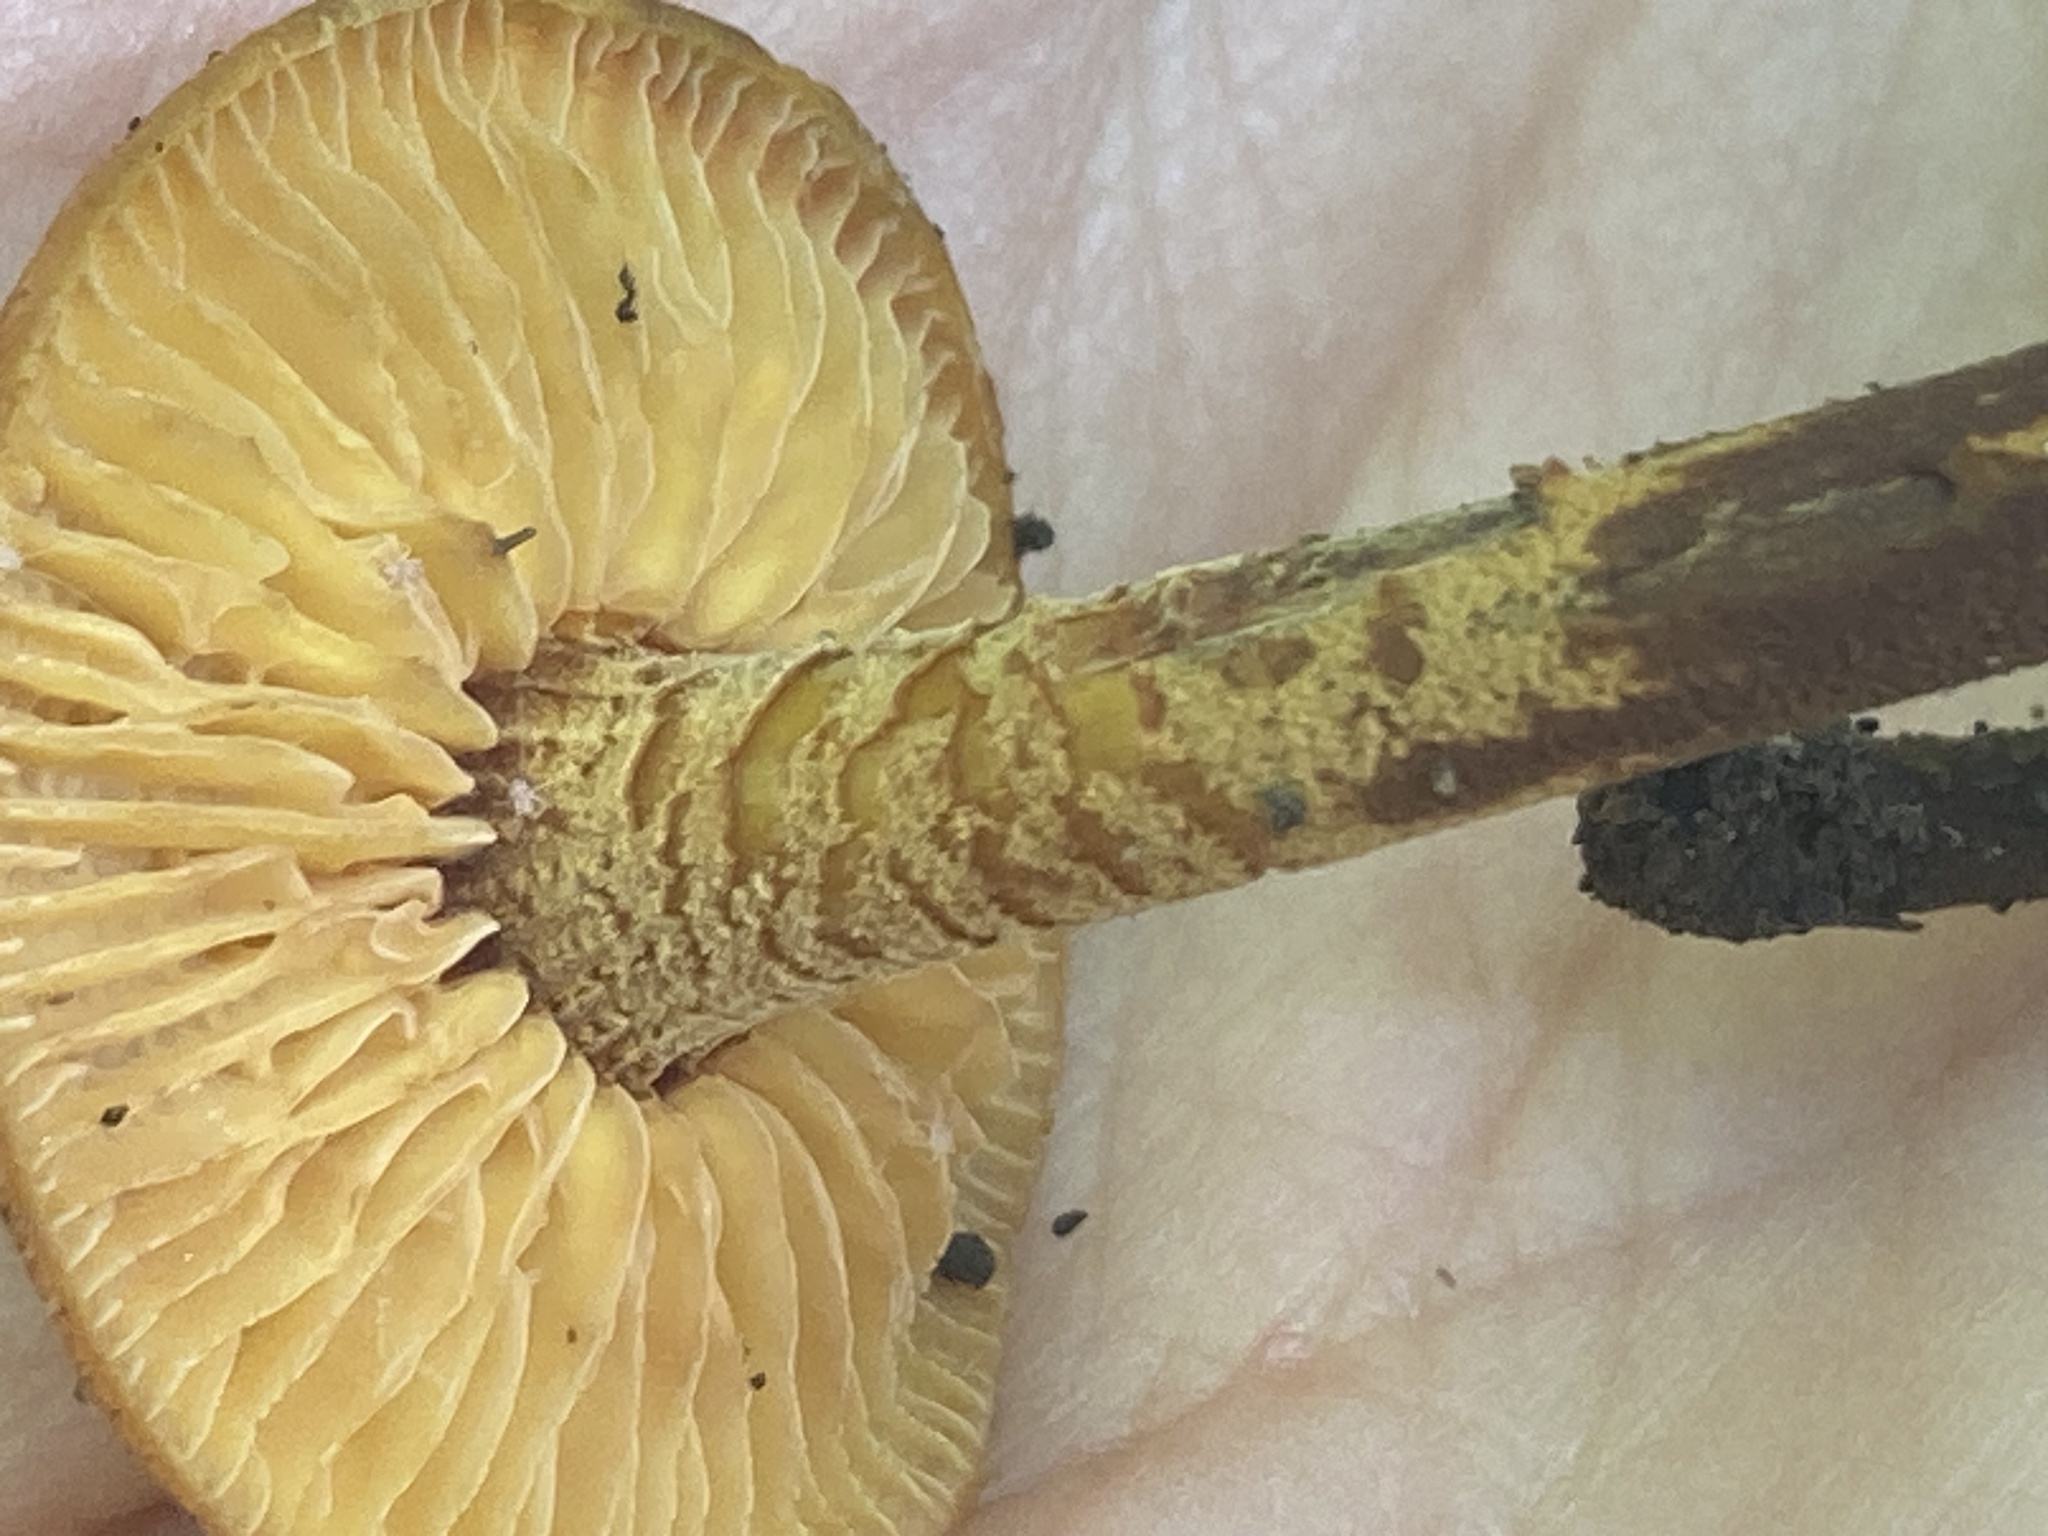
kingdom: Fungi
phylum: Basidiomycota
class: Agaricomycetes
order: Agaricales
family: Mycenaceae
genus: Xeromphalina
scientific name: Xeromphalina tenuipes
